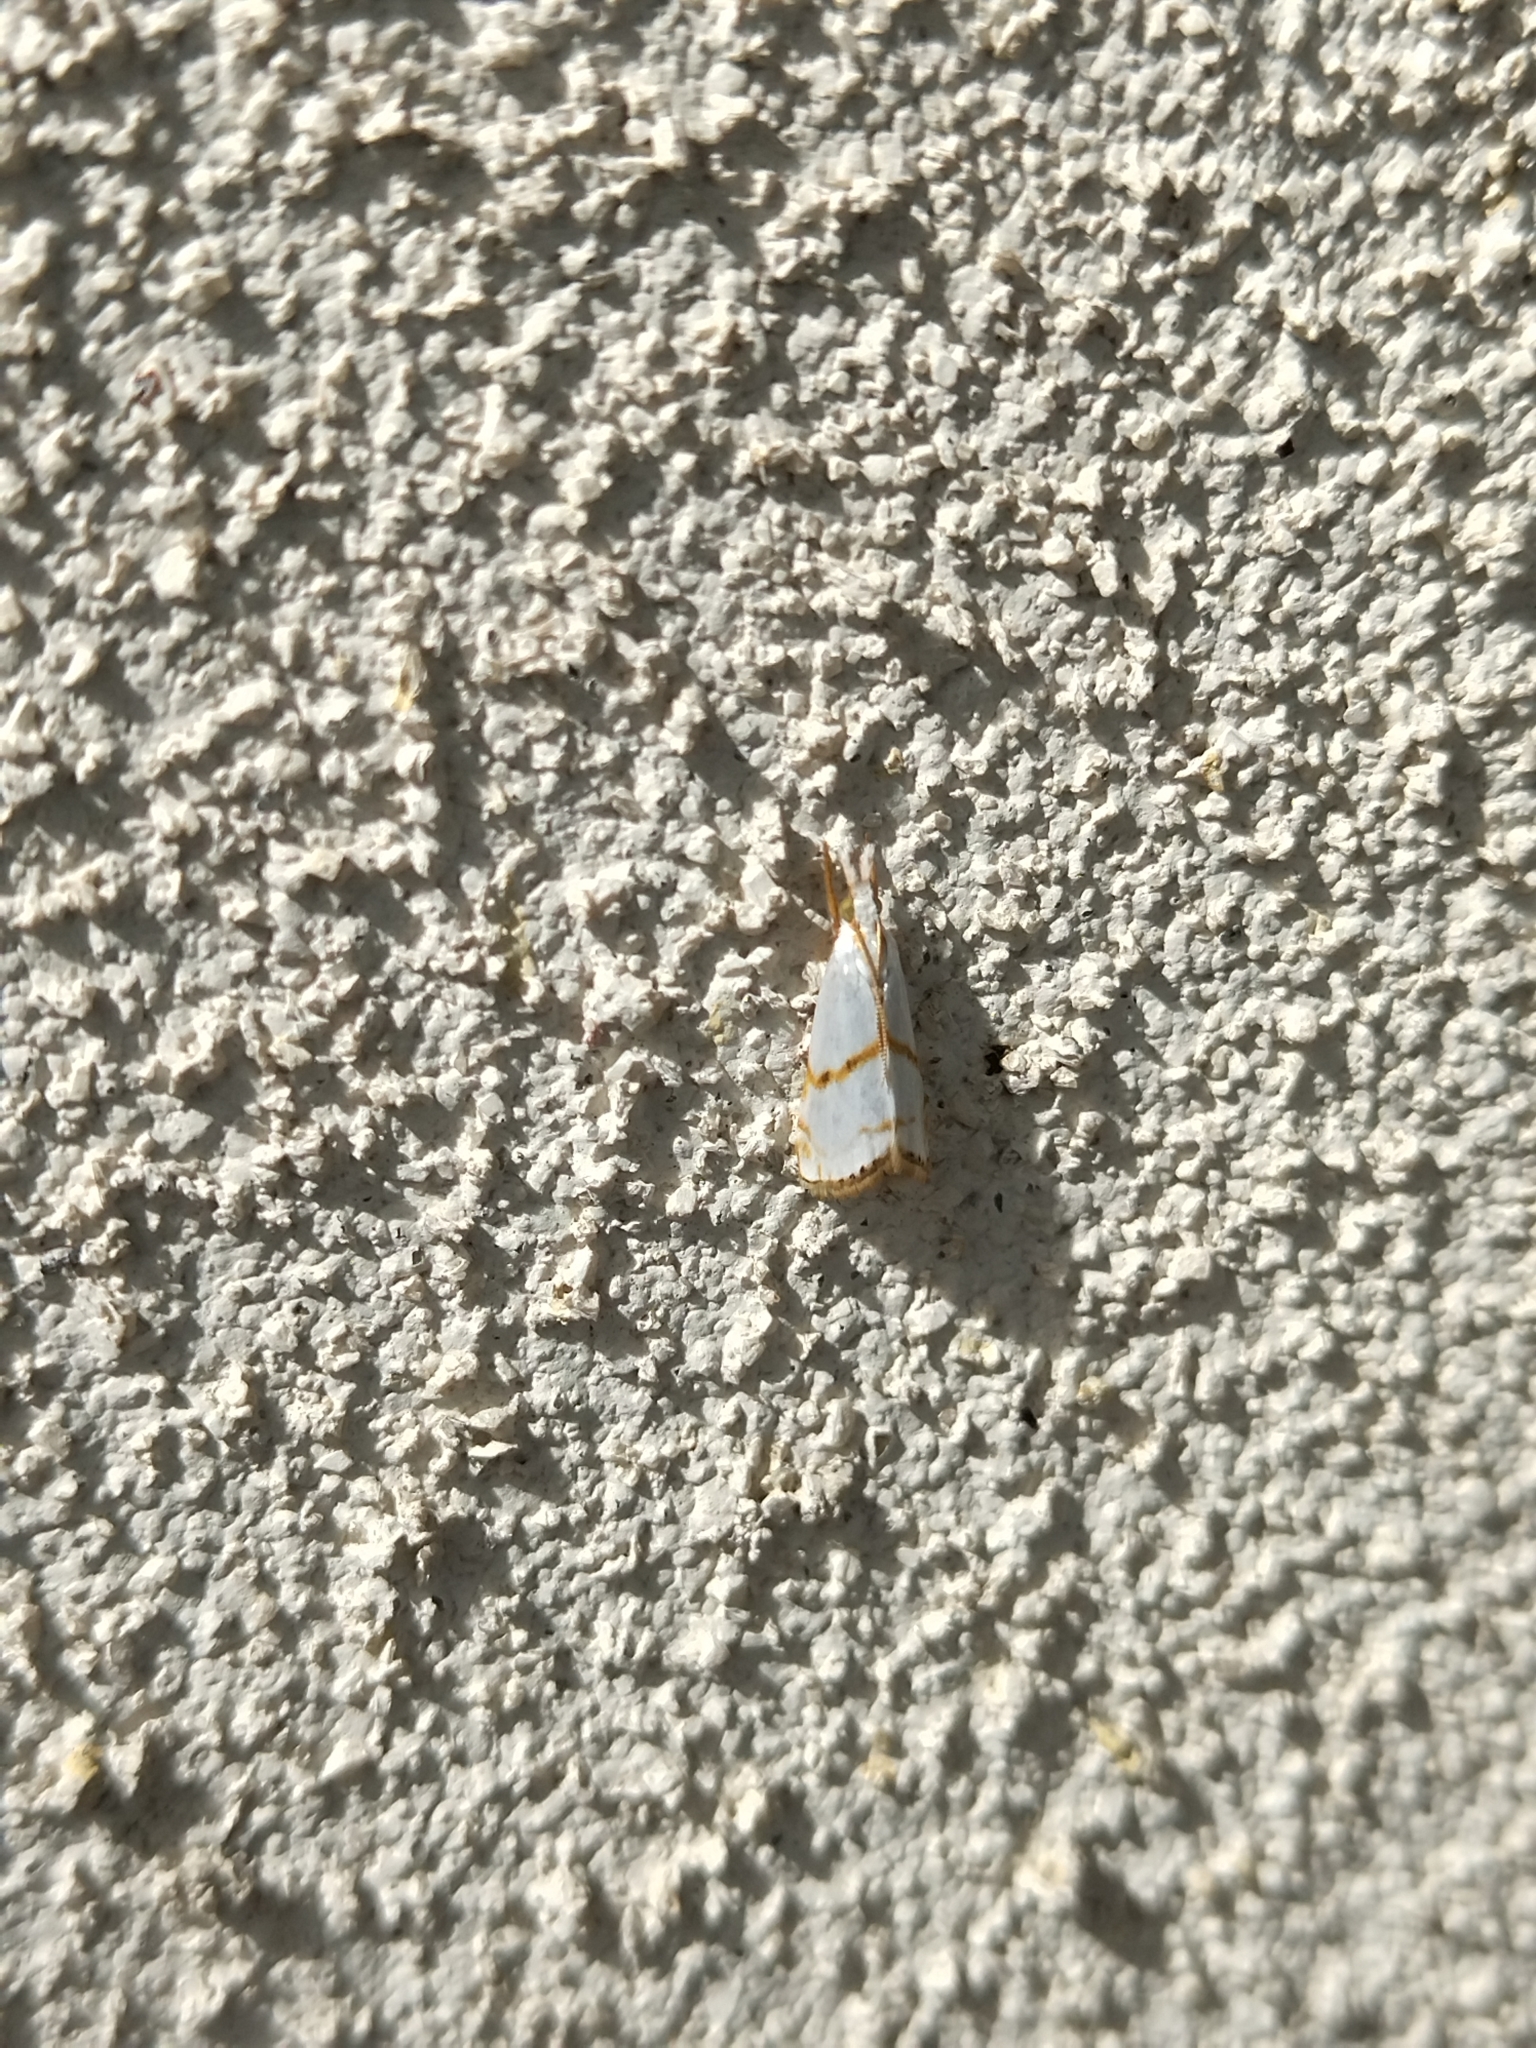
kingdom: Animalia
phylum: Arthropoda
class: Insecta
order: Lepidoptera
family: Crambidae
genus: Pseudargyria
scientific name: Pseudargyria interruptella
